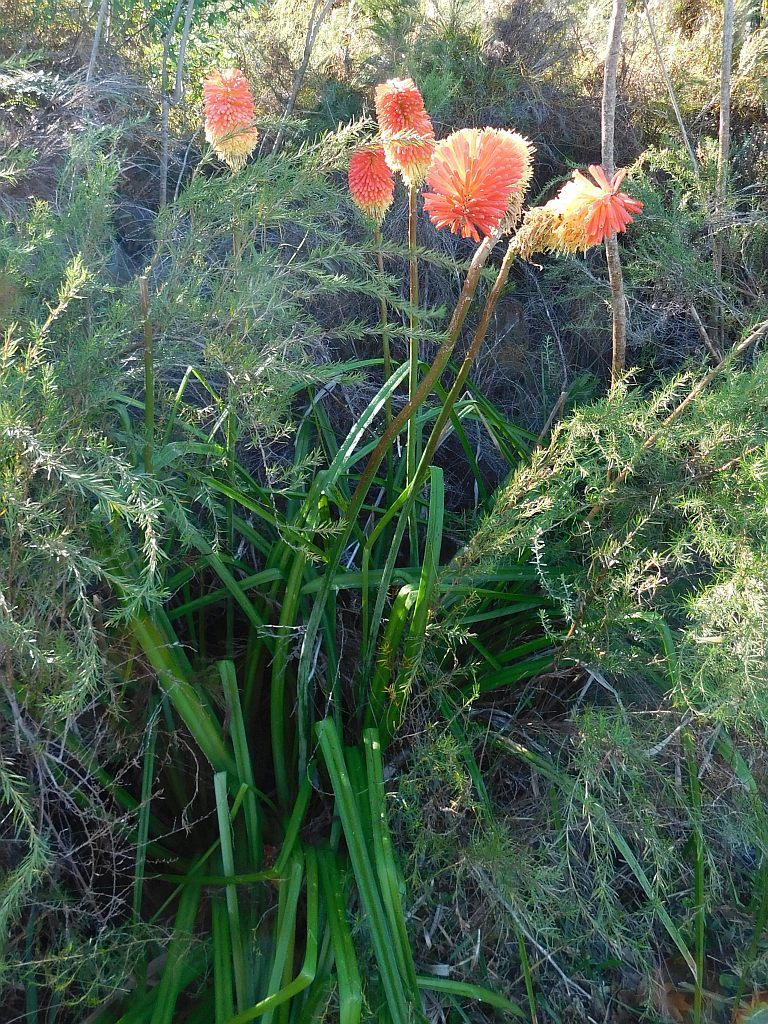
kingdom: Plantae
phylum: Tracheophyta
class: Liliopsida
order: Asparagales
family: Asphodelaceae
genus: Kniphofia
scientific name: Kniphofia uvaria
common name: Red-hot-poker
